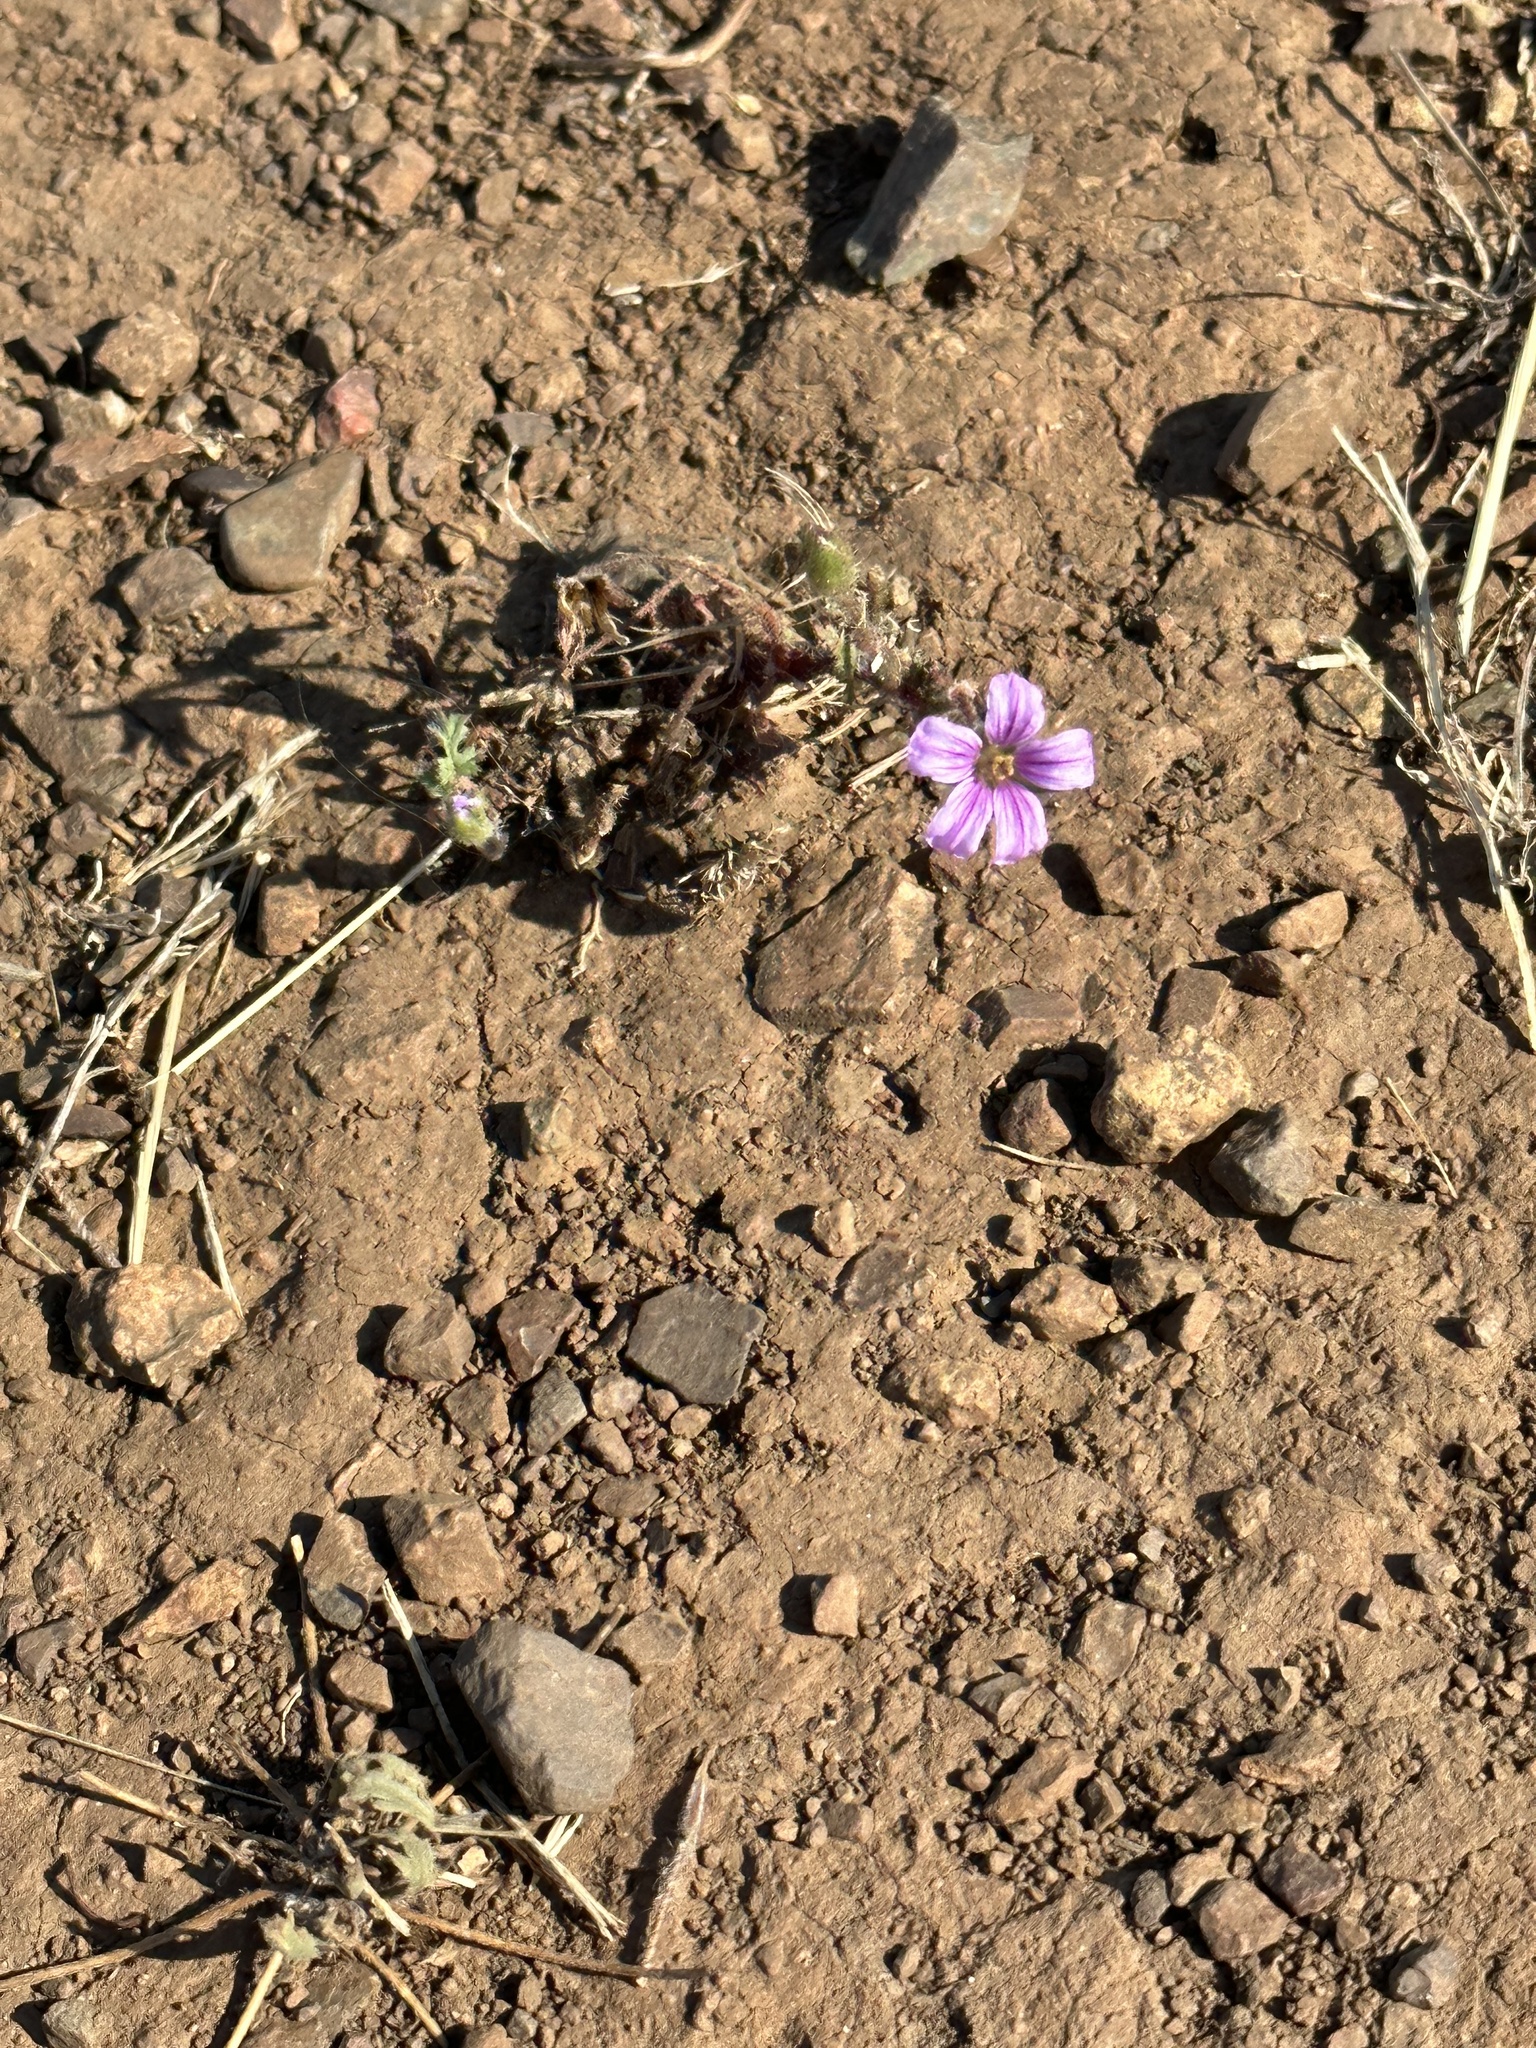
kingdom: Plantae
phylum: Tracheophyta
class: Magnoliopsida
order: Geraniales
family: Geraniaceae
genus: Erodium
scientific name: Erodium botrys
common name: Mediterranean stork's-bill
